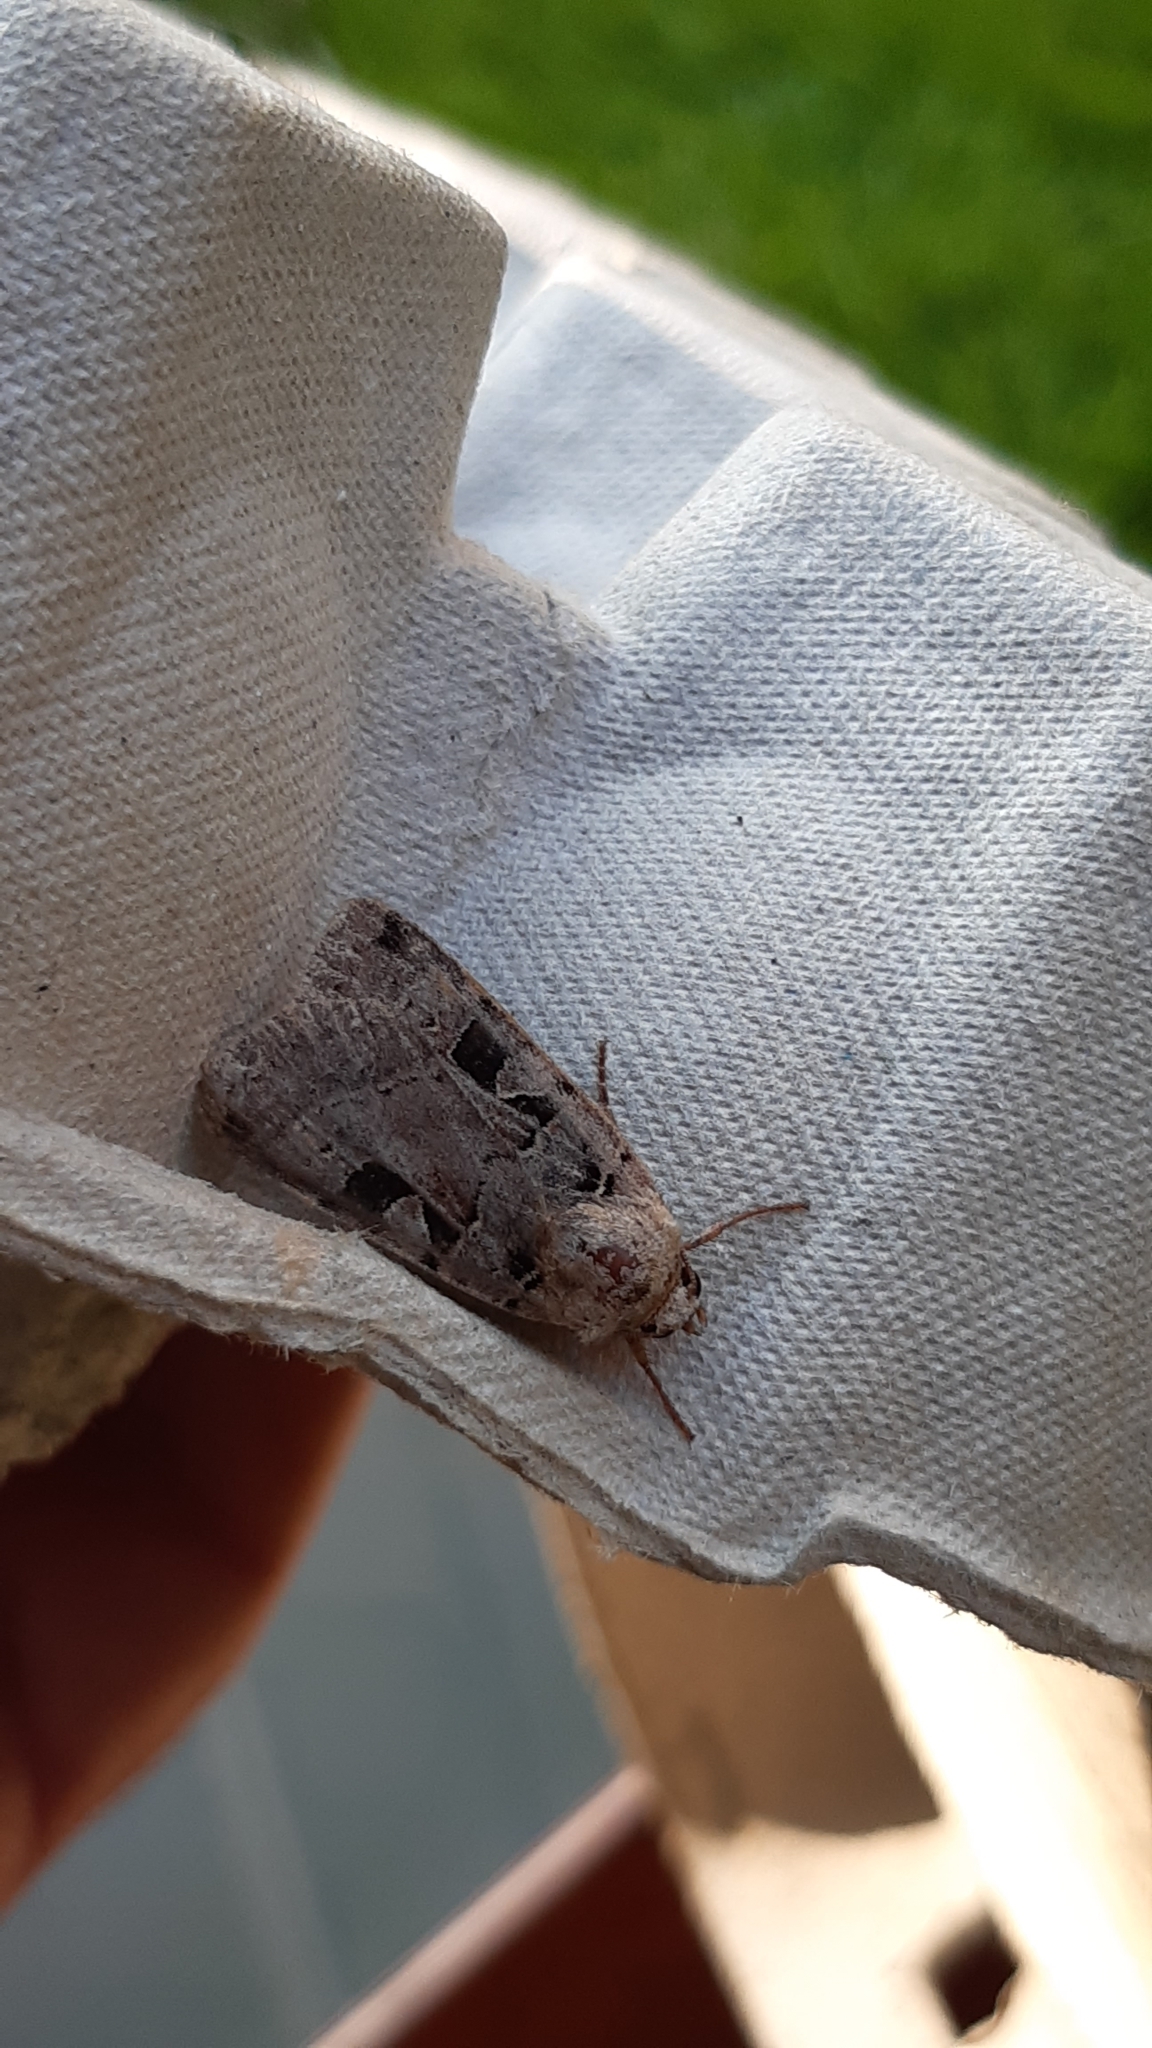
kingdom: Animalia
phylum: Arthropoda
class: Insecta
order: Lepidoptera
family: Noctuidae
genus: Xestia
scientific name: Xestia triangulum
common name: Double square-spot
